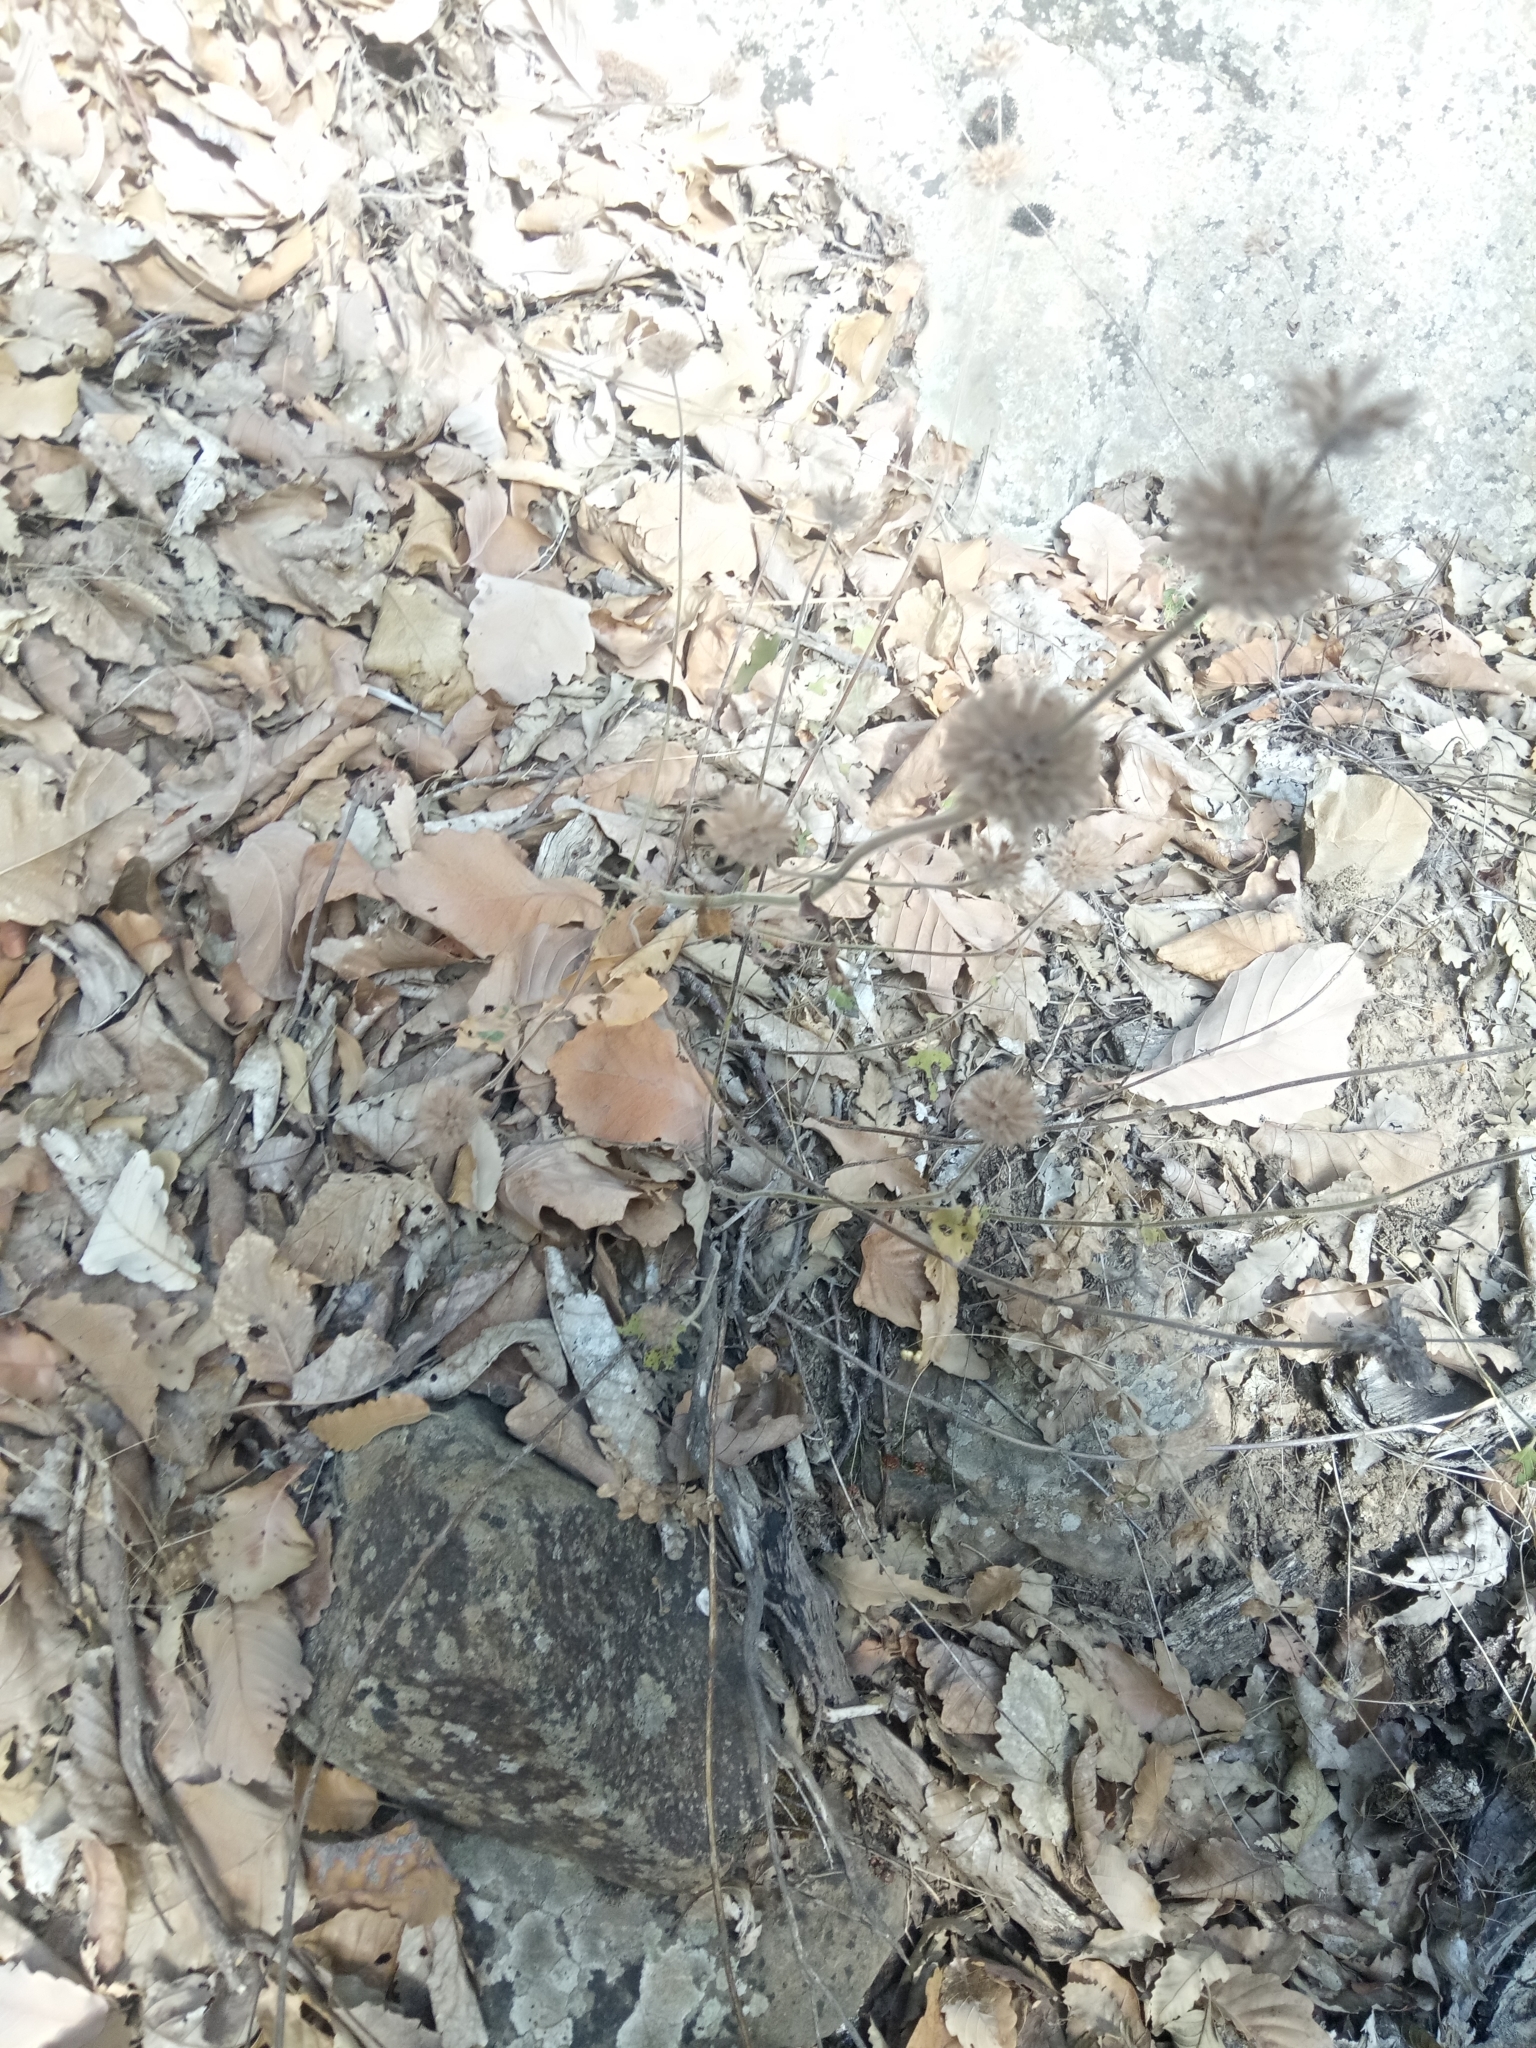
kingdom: Plantae
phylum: Tracheophyta
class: Magnoliopsida
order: Lamiales
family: Lamiaceae
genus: Clinopodium
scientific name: Clinopodium vulgare
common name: Wild basil
